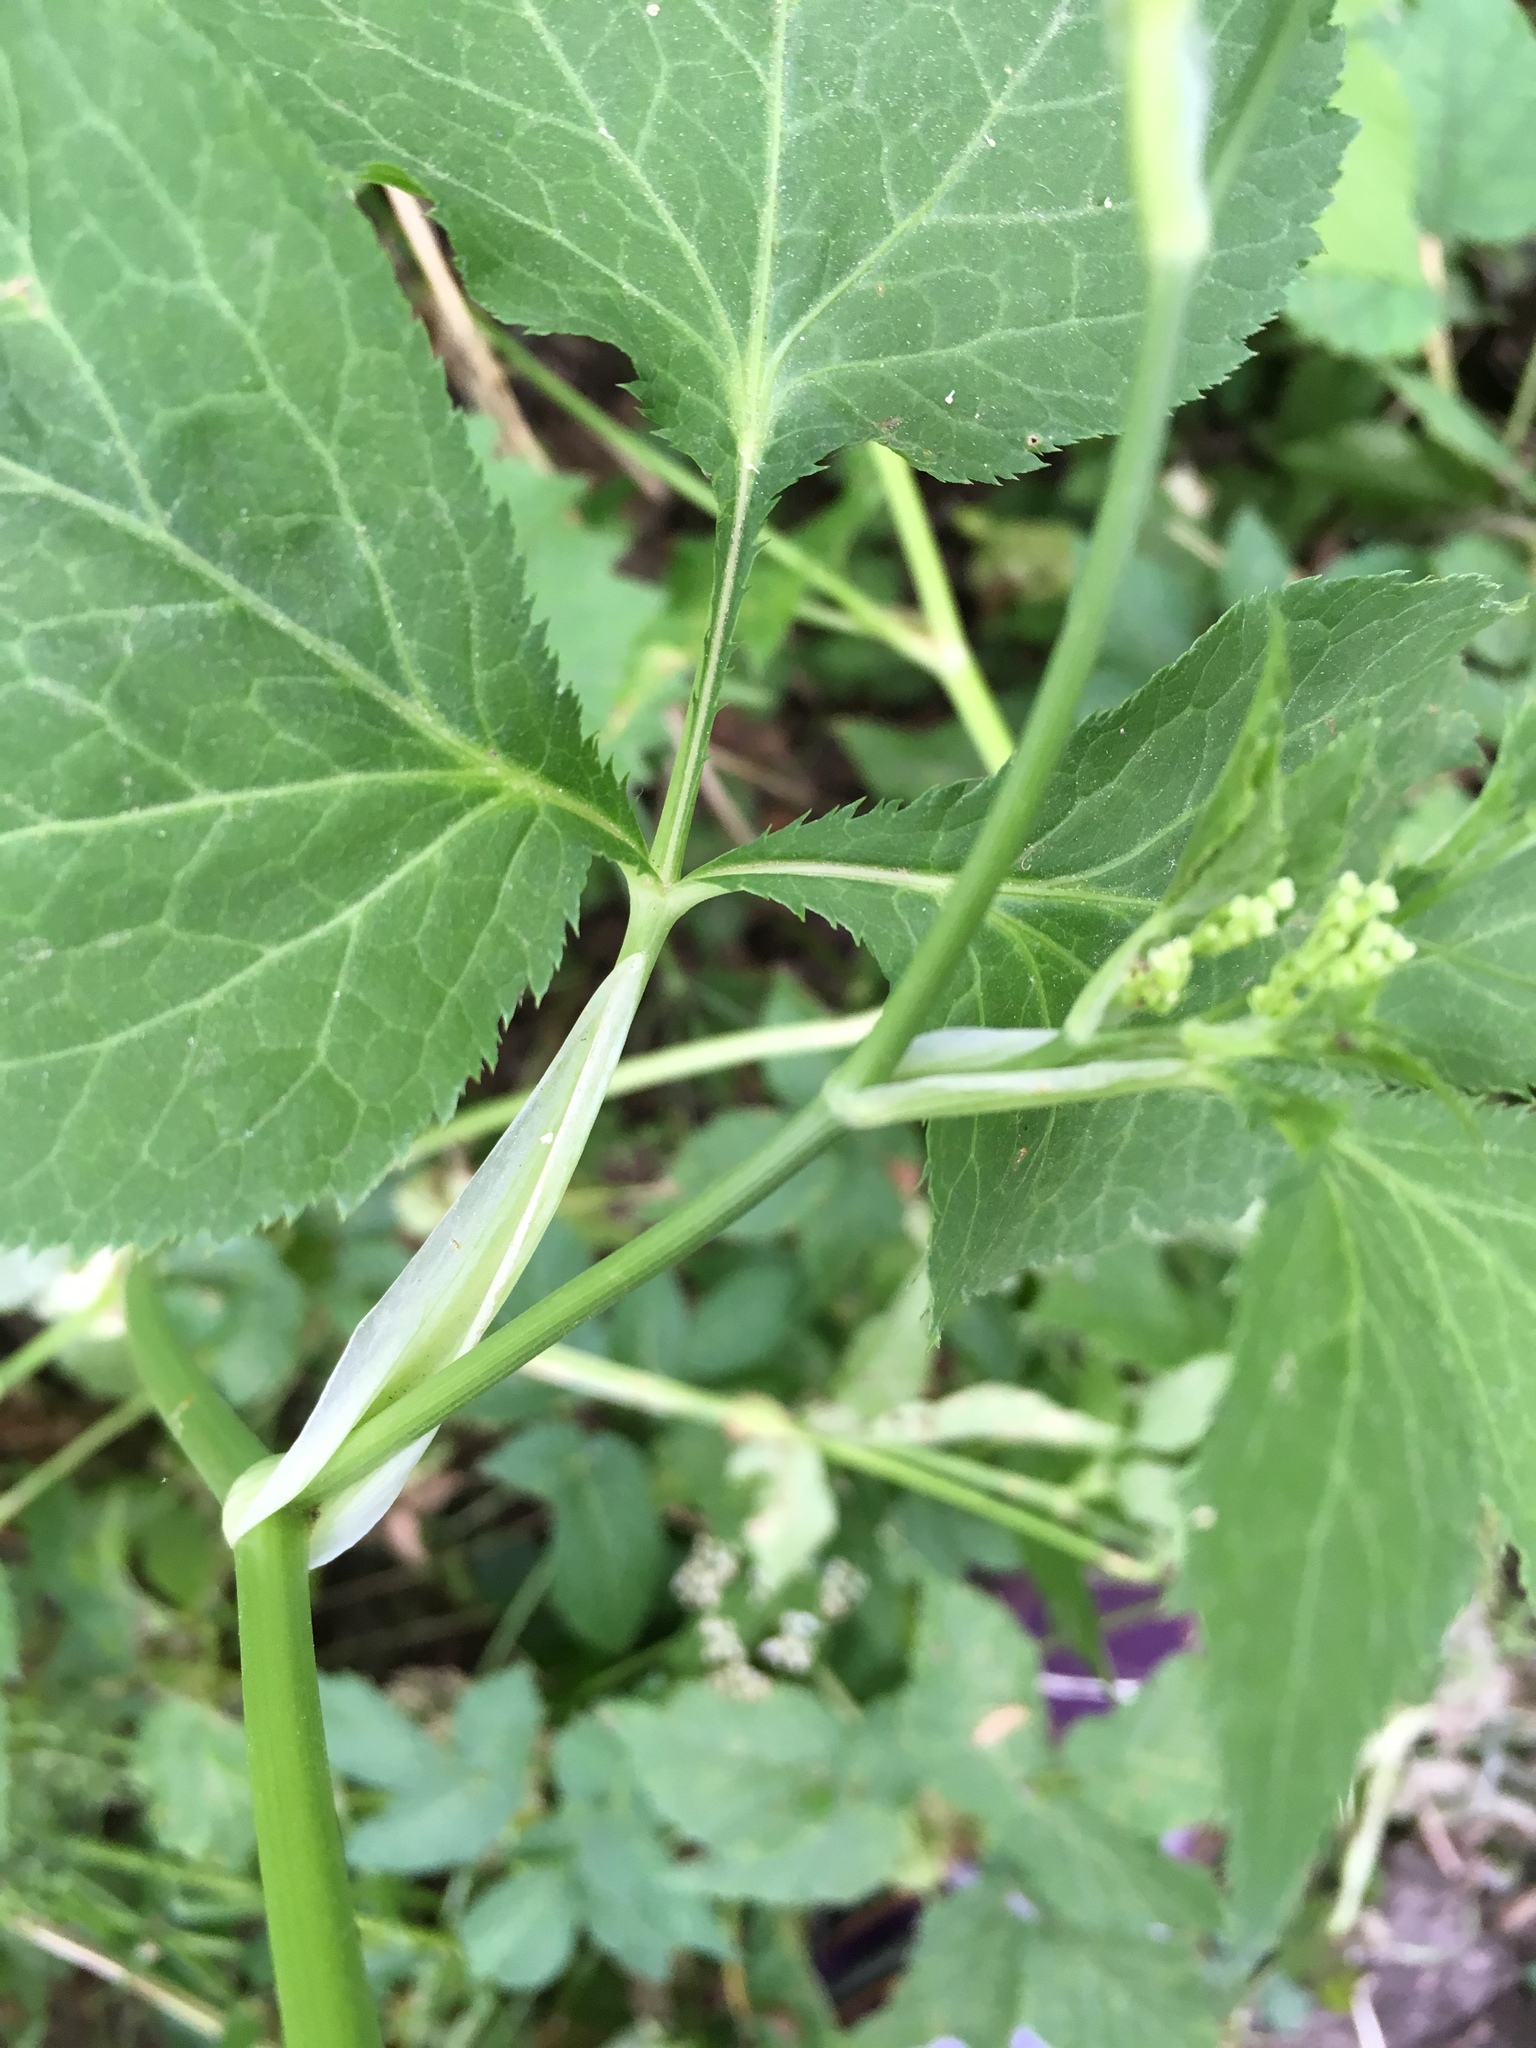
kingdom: Plantae
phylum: Tracheophyta
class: Magnoliopsida
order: Apiales
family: Apiaceae
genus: Cryptotaenia
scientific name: Cryptotaenia canadensis
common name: Honewort
